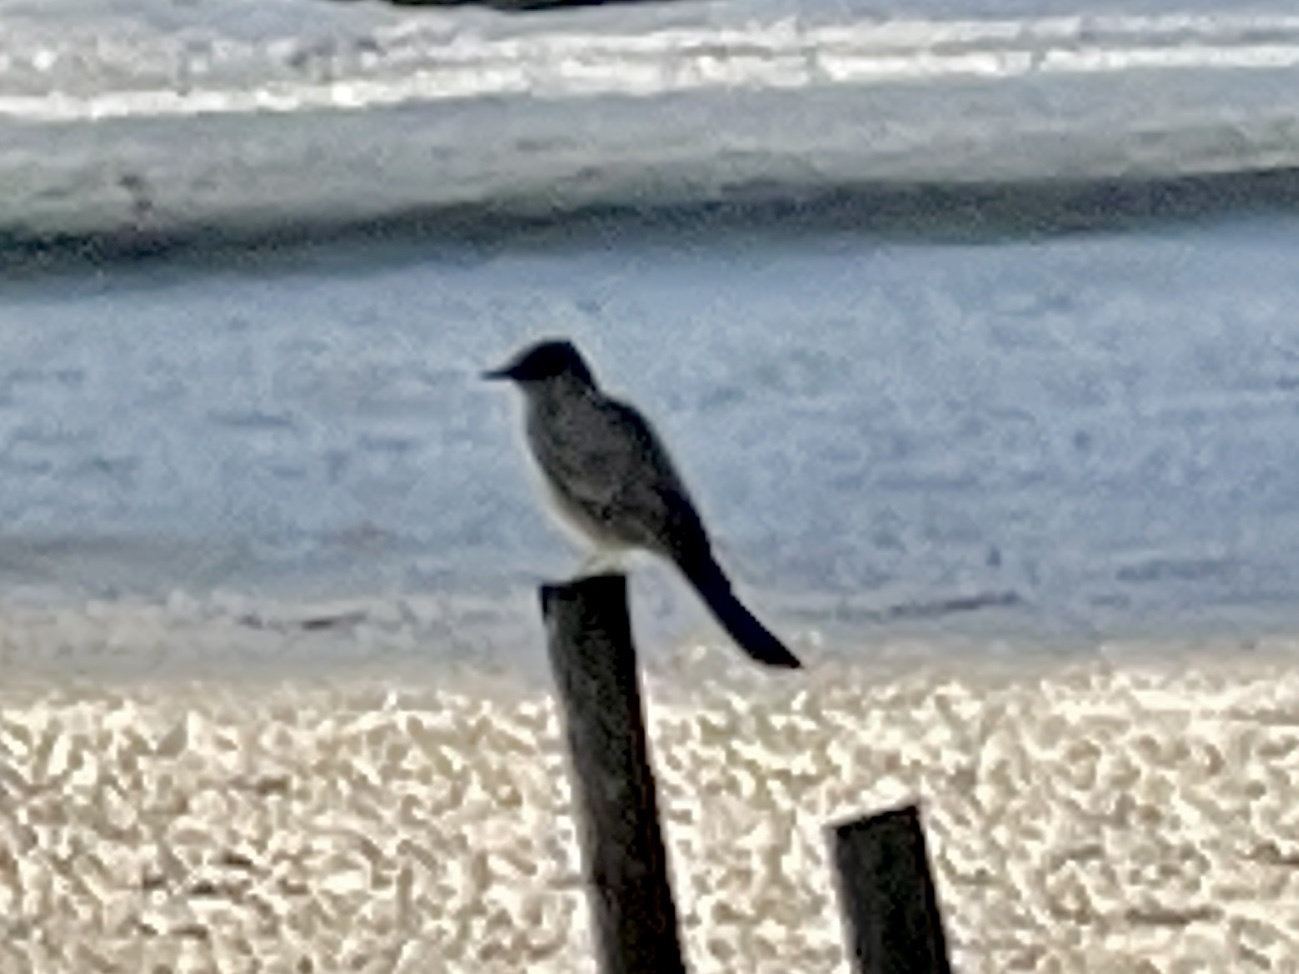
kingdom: Animalia
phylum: Chordata
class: Aves
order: Passeriformes
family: Tyrannidae
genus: Sayornis
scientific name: Sayornis saya
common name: Say's phoebe
